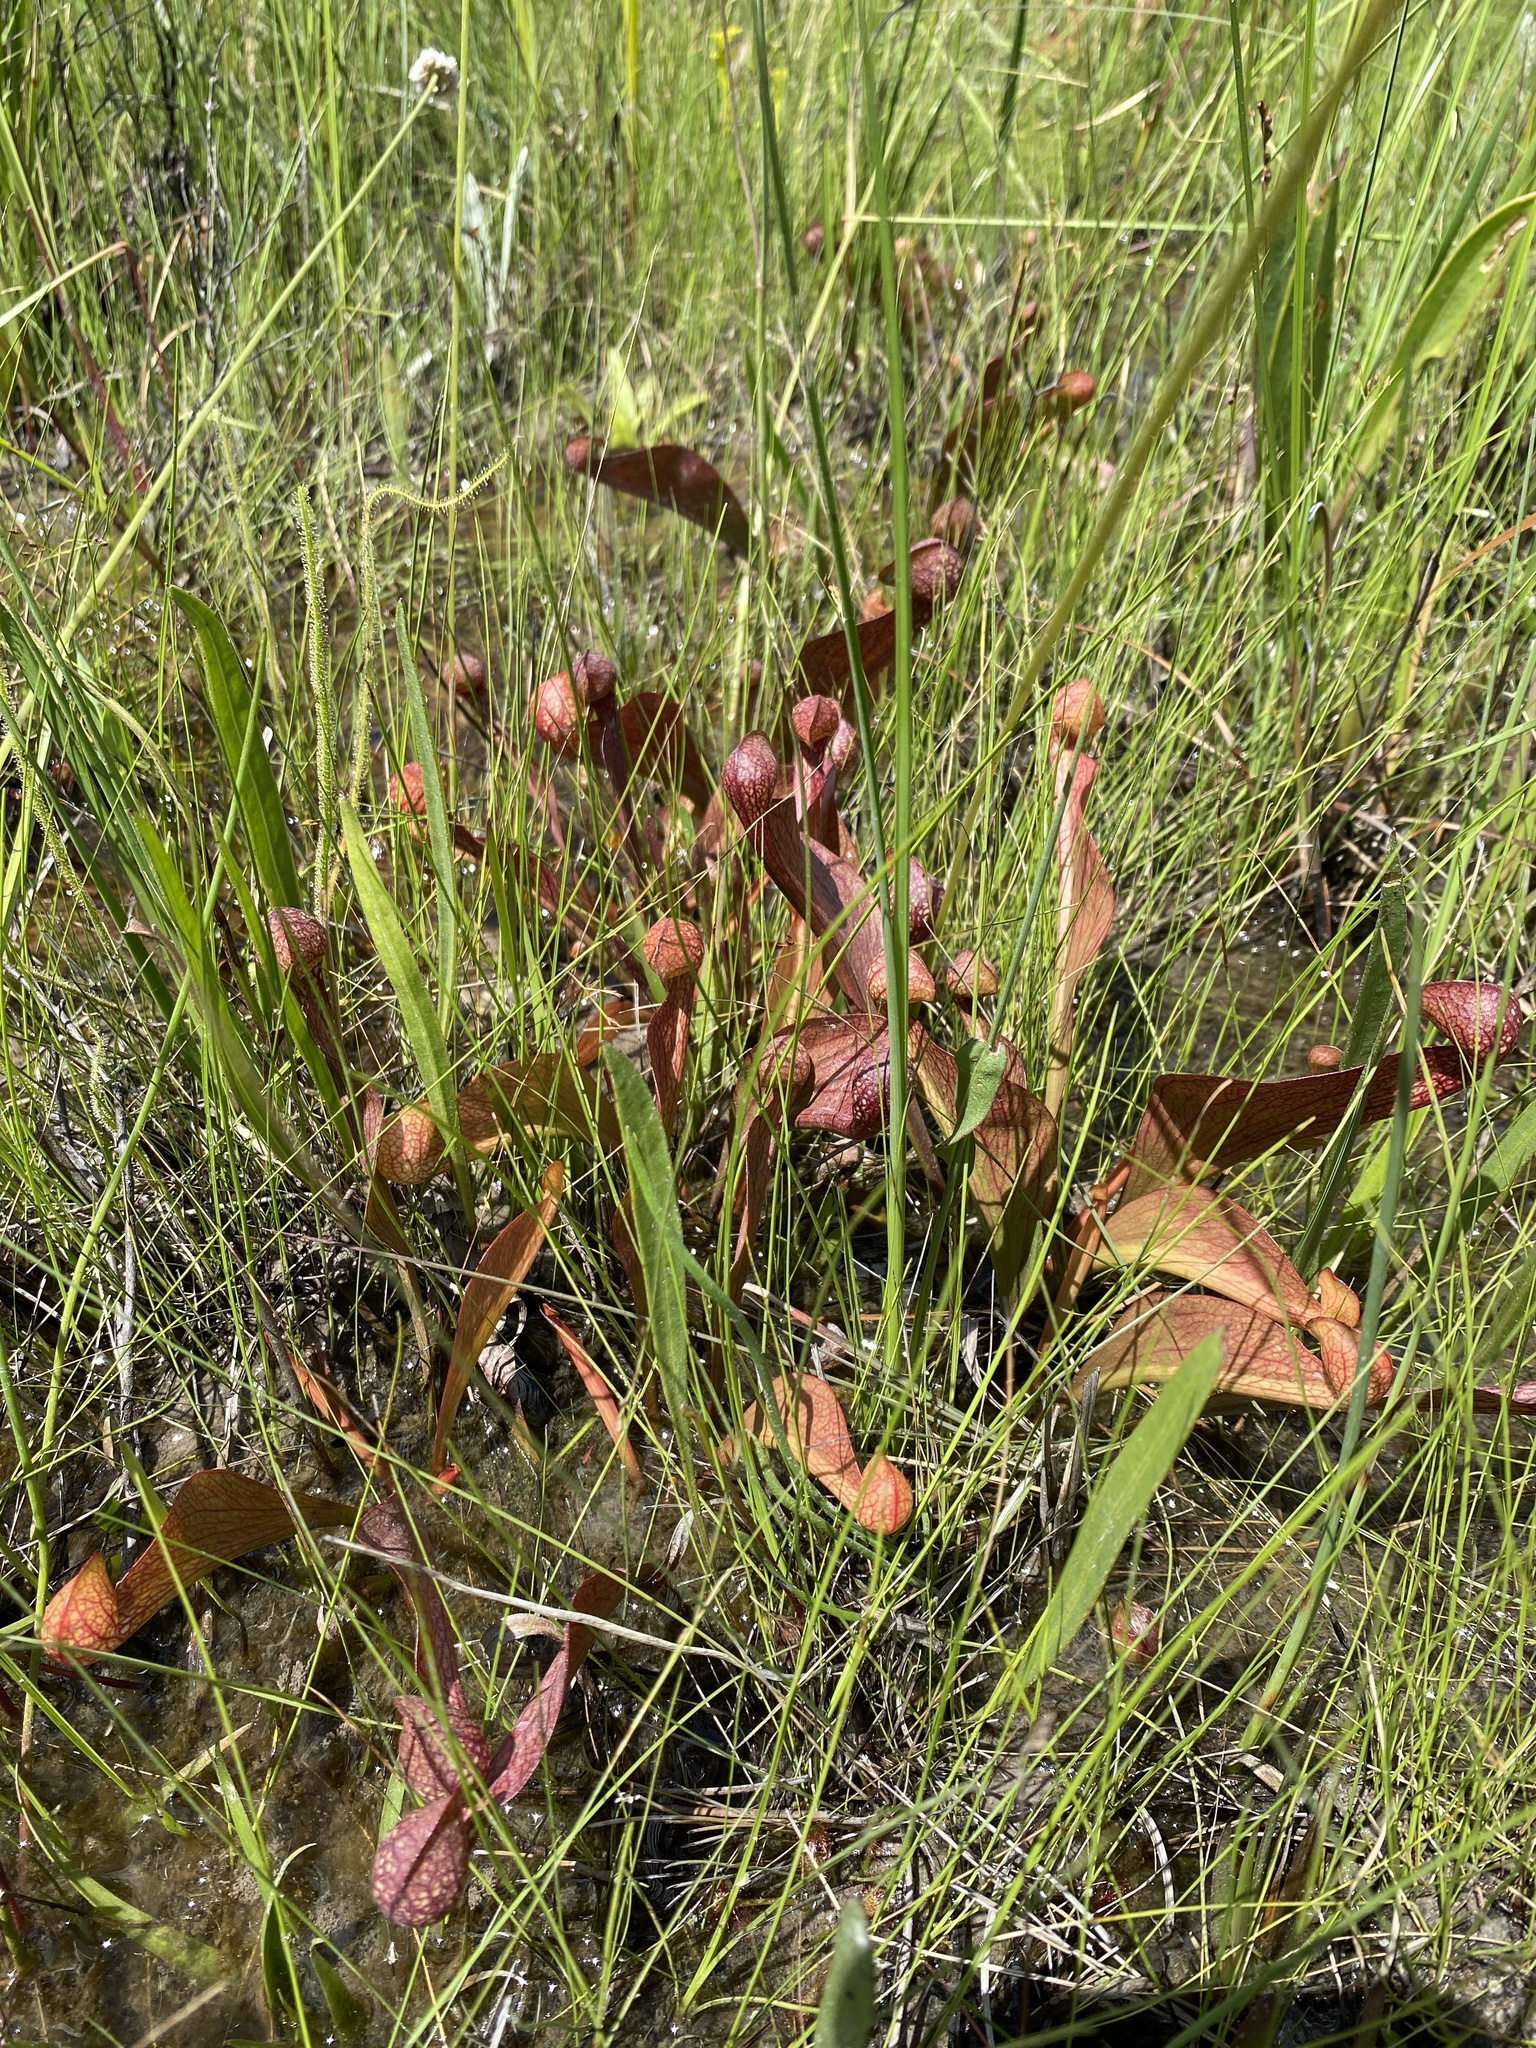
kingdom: Plantae
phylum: Tracheophyta
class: Magnoliopsida
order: Ericales
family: Sarraceniaceae
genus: Sarracenia
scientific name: Sarracenia psittacina
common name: Parrot pitcherplant
